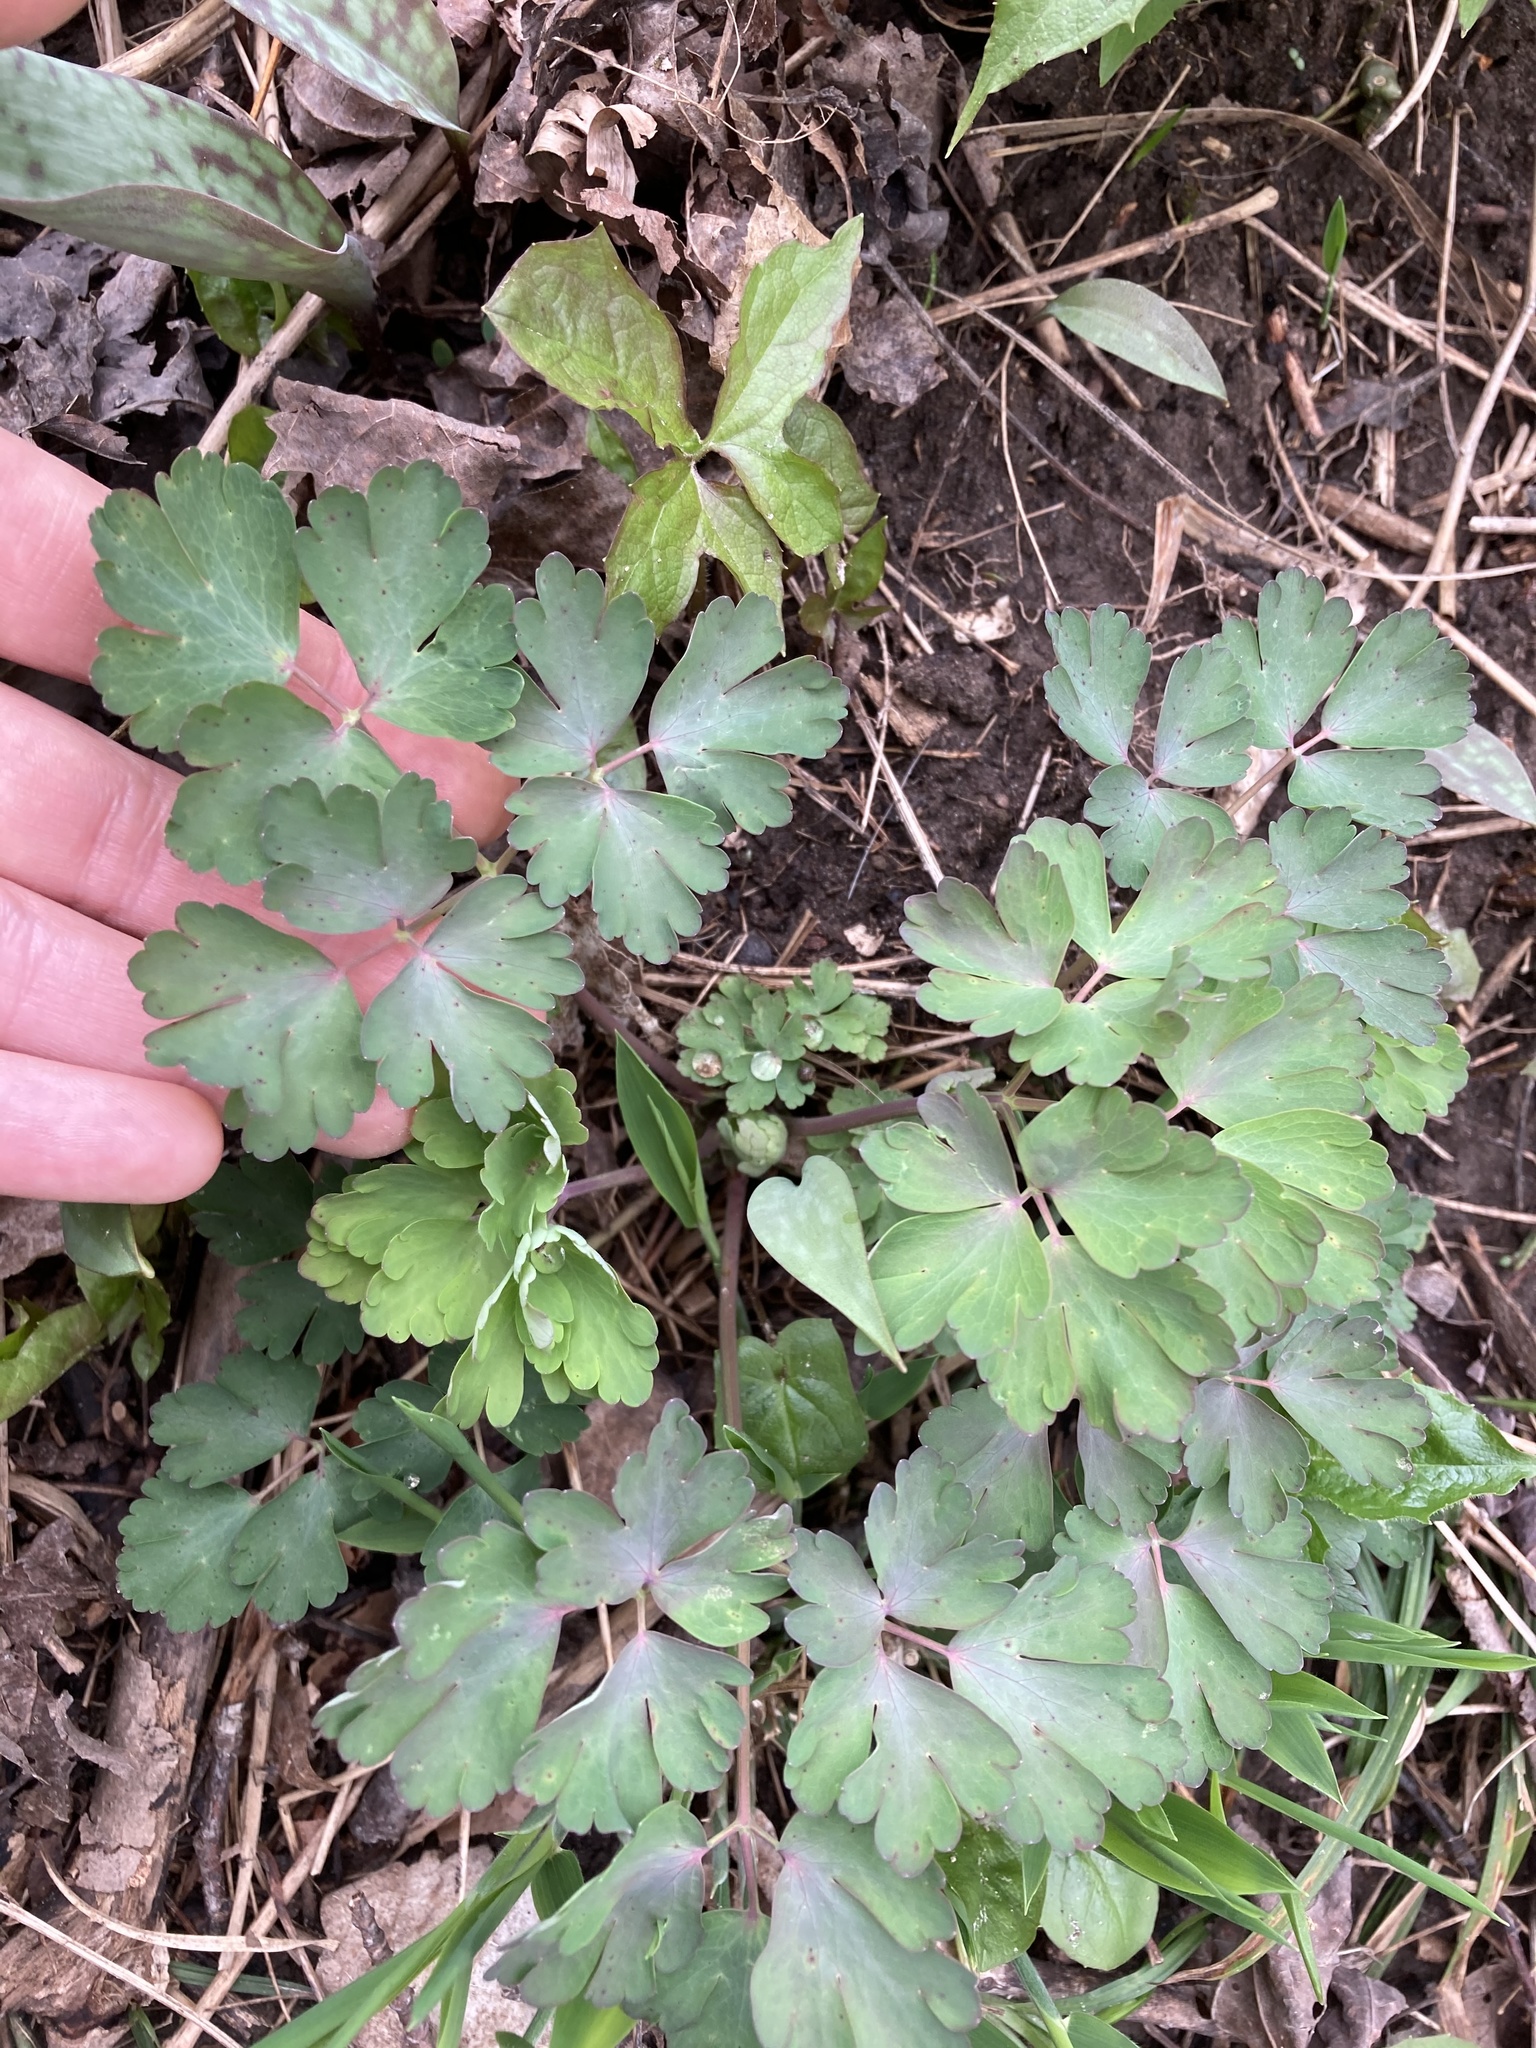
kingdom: Plantae
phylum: Tracheophyta
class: Magnoliopsida
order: Ranunculales
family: Ranunculaceae
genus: Aquilegia
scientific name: Aquilegia canadensis
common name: American columbine
